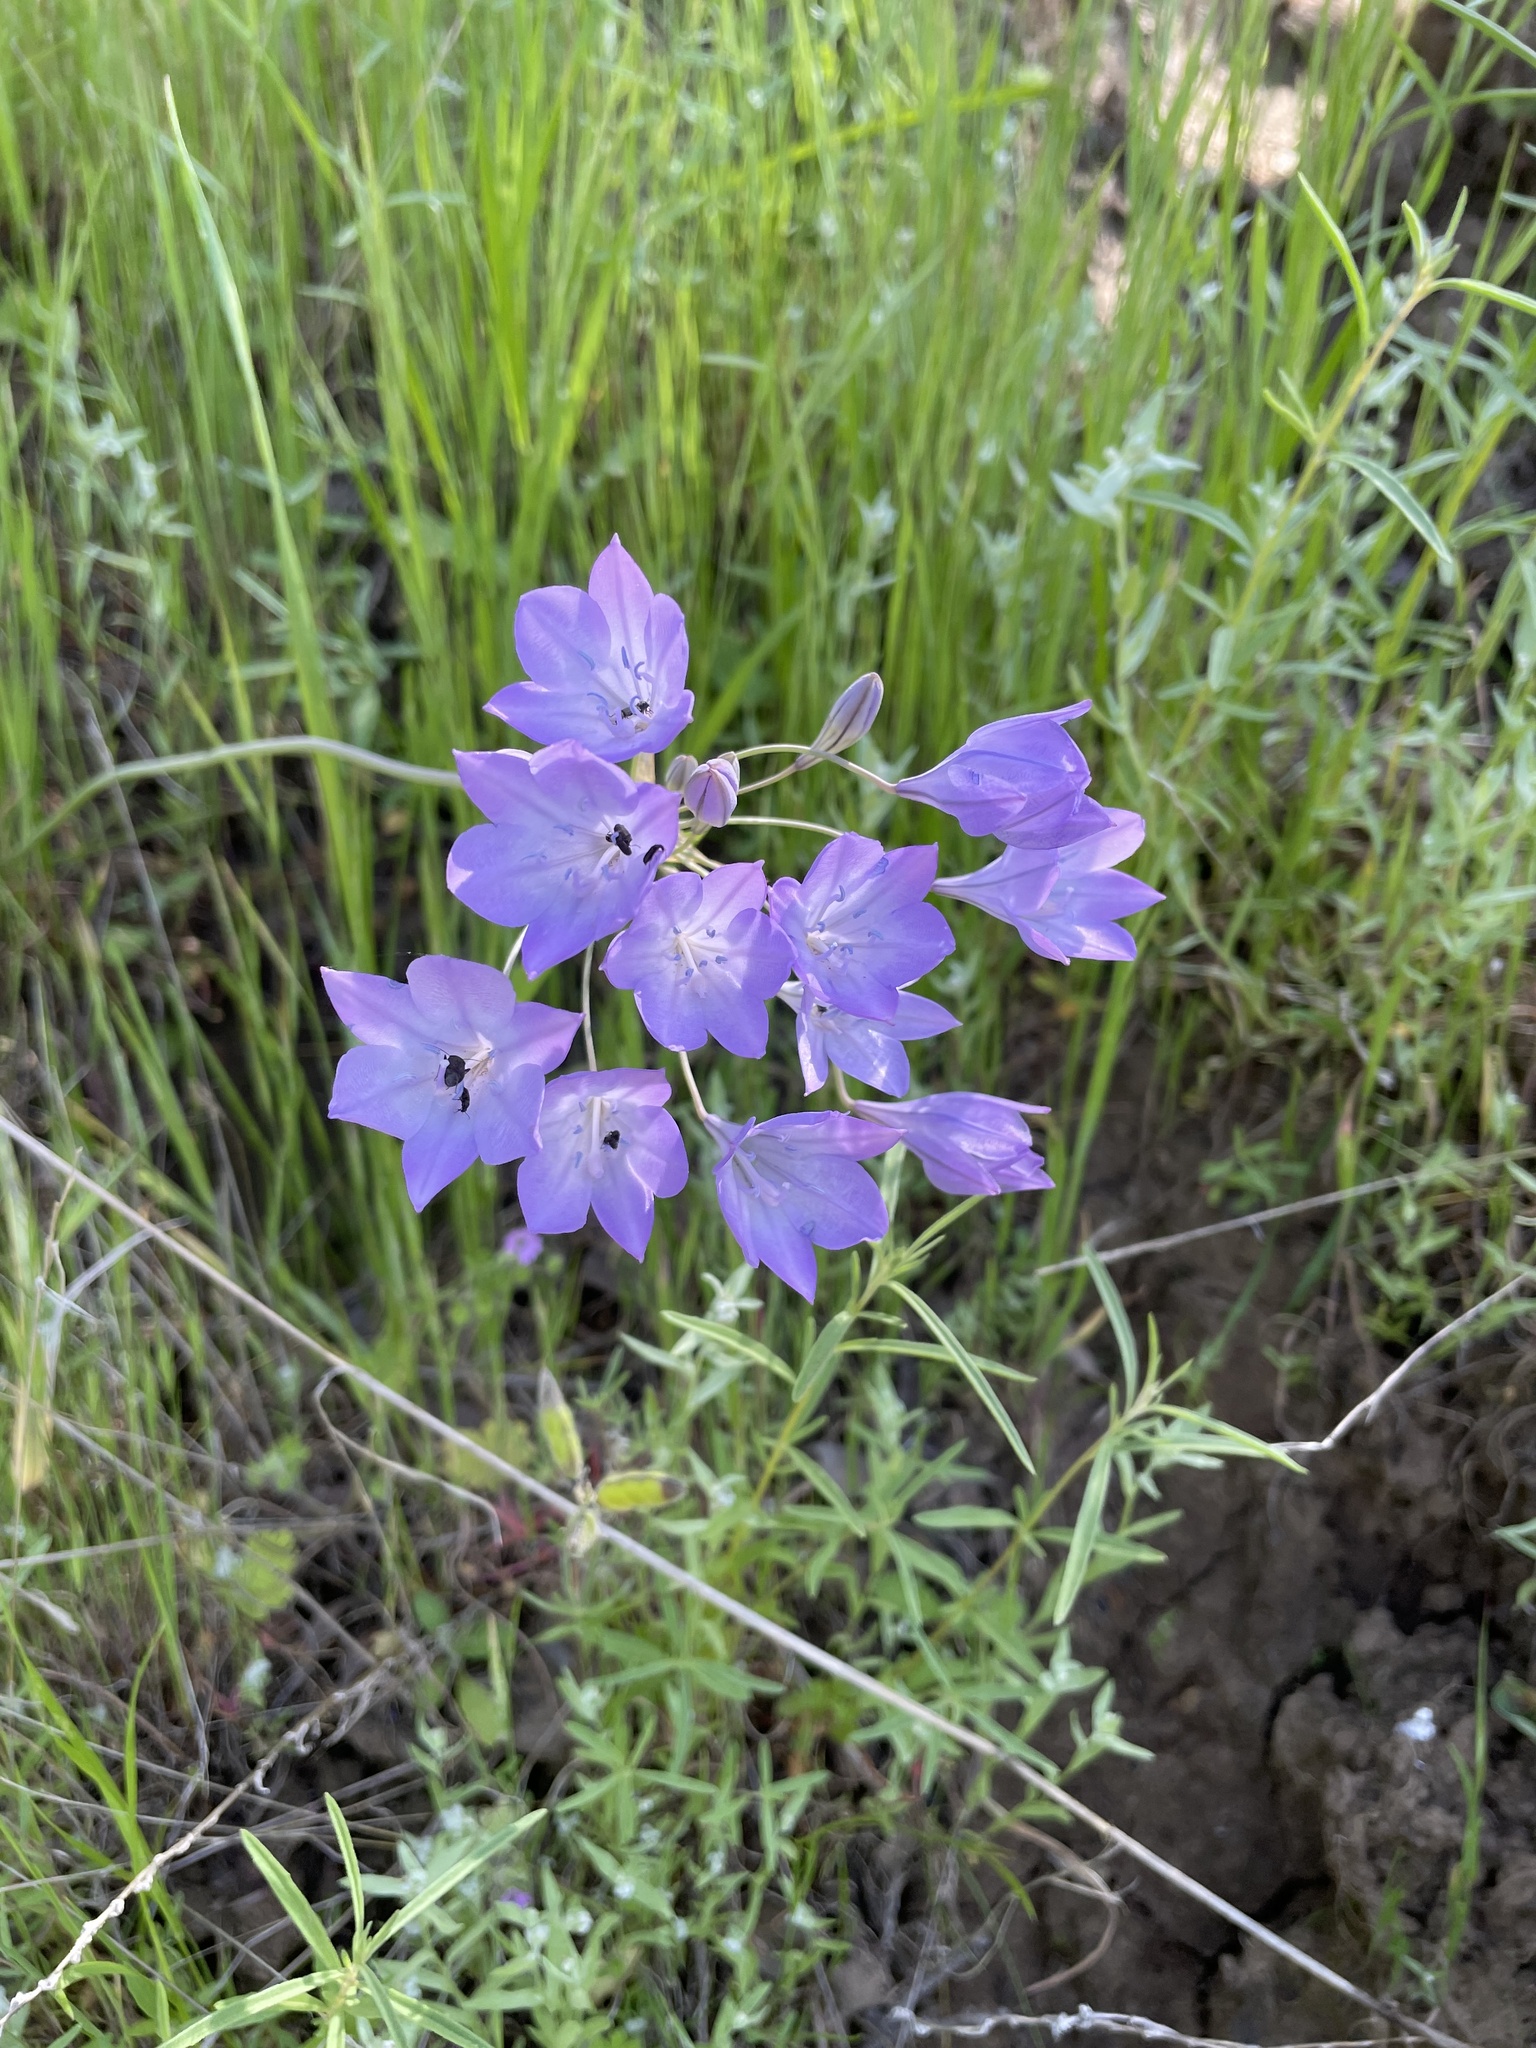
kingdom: Plantae
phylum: Tracheophyta
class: Liliopsida
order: Asparagales
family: Asparagaceae
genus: Triteleia
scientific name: Triteleia laxa
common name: Triplet-lily
